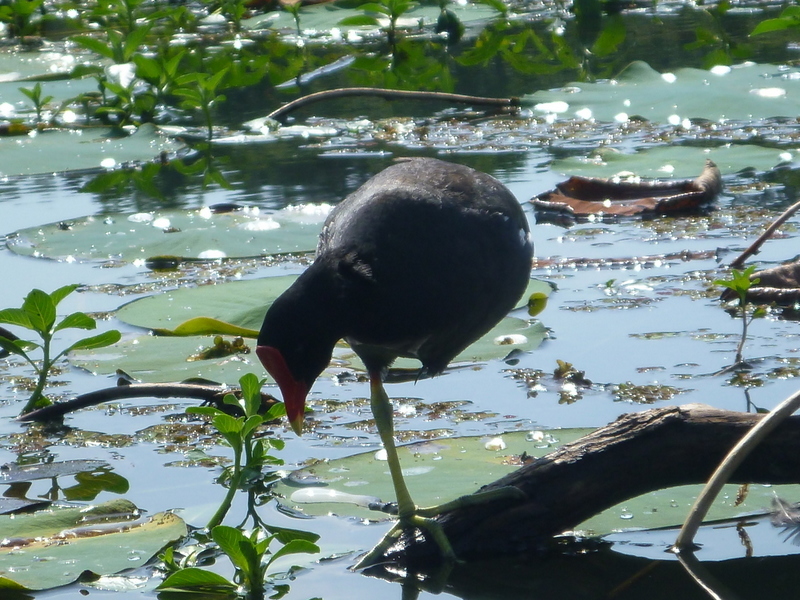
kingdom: Animalia
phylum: Chordata
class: Aves
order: Gruiformes
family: Rallidae
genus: Gallinula
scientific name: Gallinula chloropus
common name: Common moorhen
